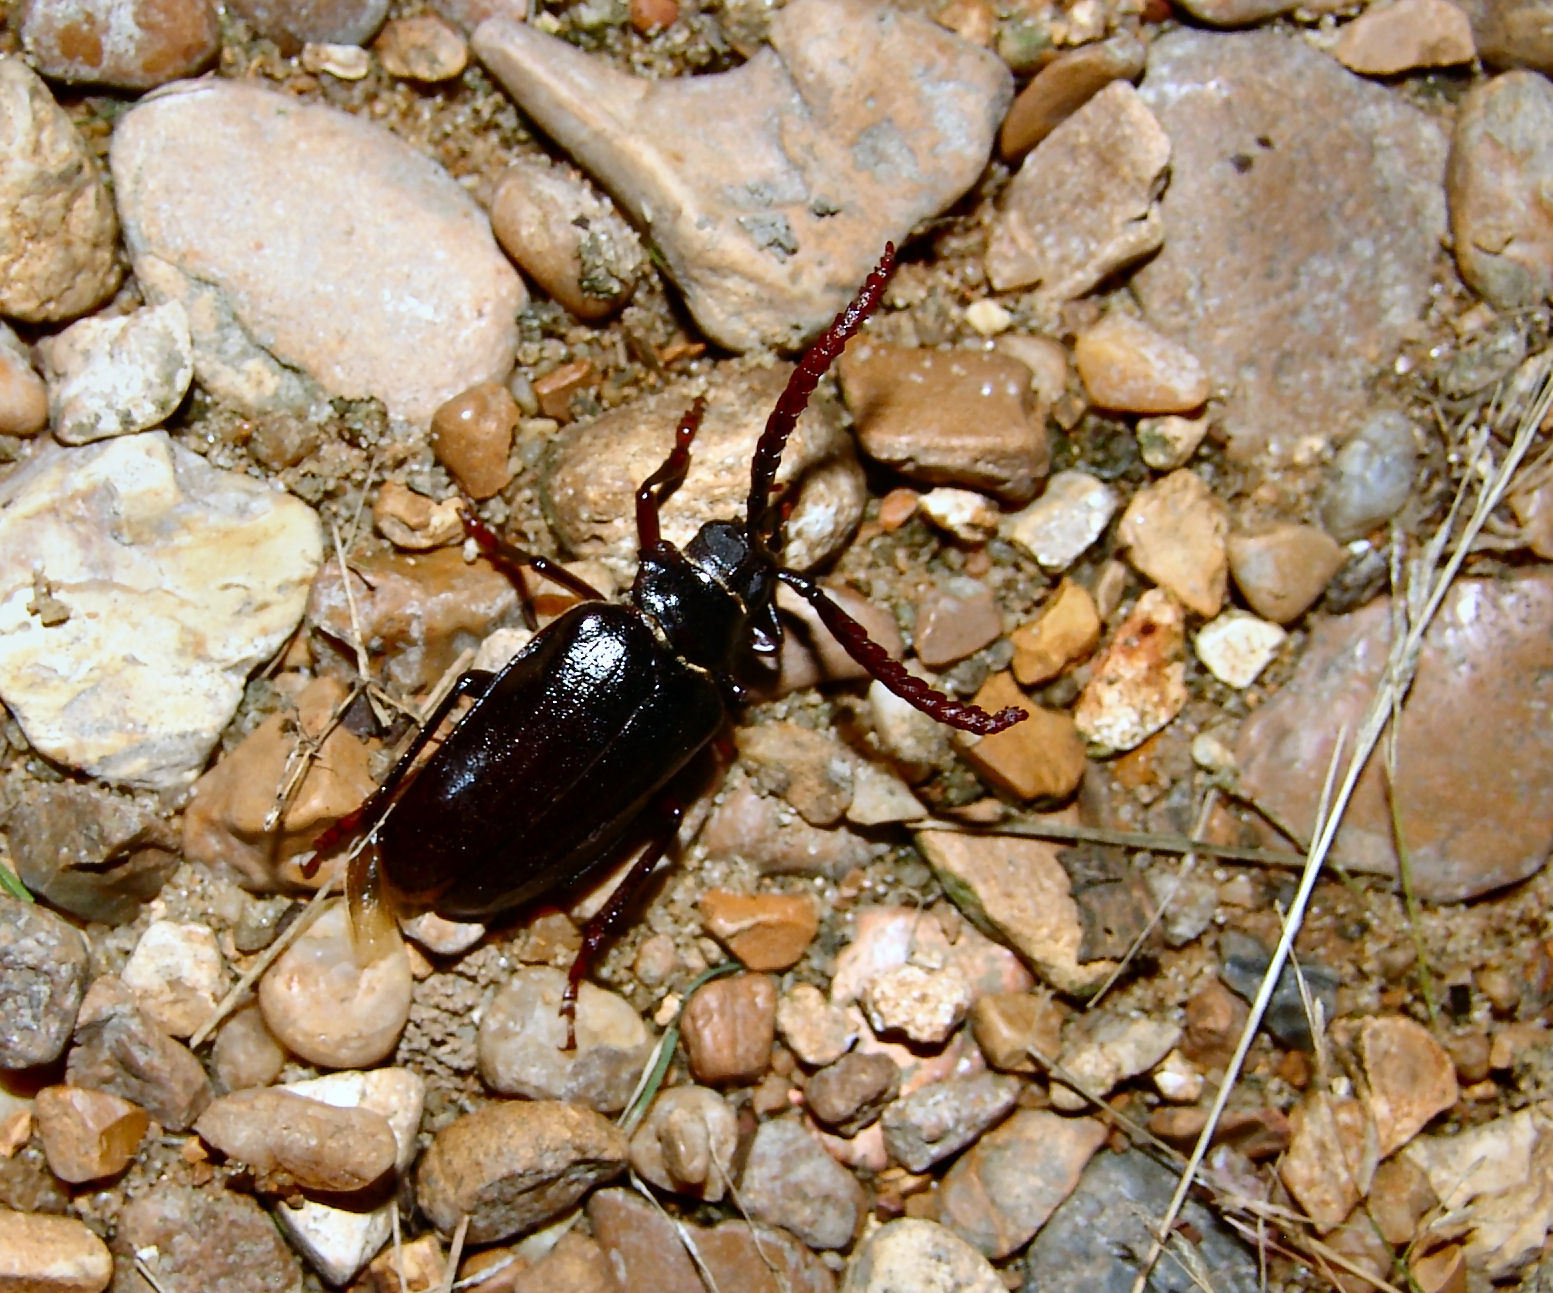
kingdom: Animalia
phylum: Arthropoda
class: Insecta
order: Coleoptera
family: Cerambycidae
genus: Prionus
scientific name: Prionus imbricornis
